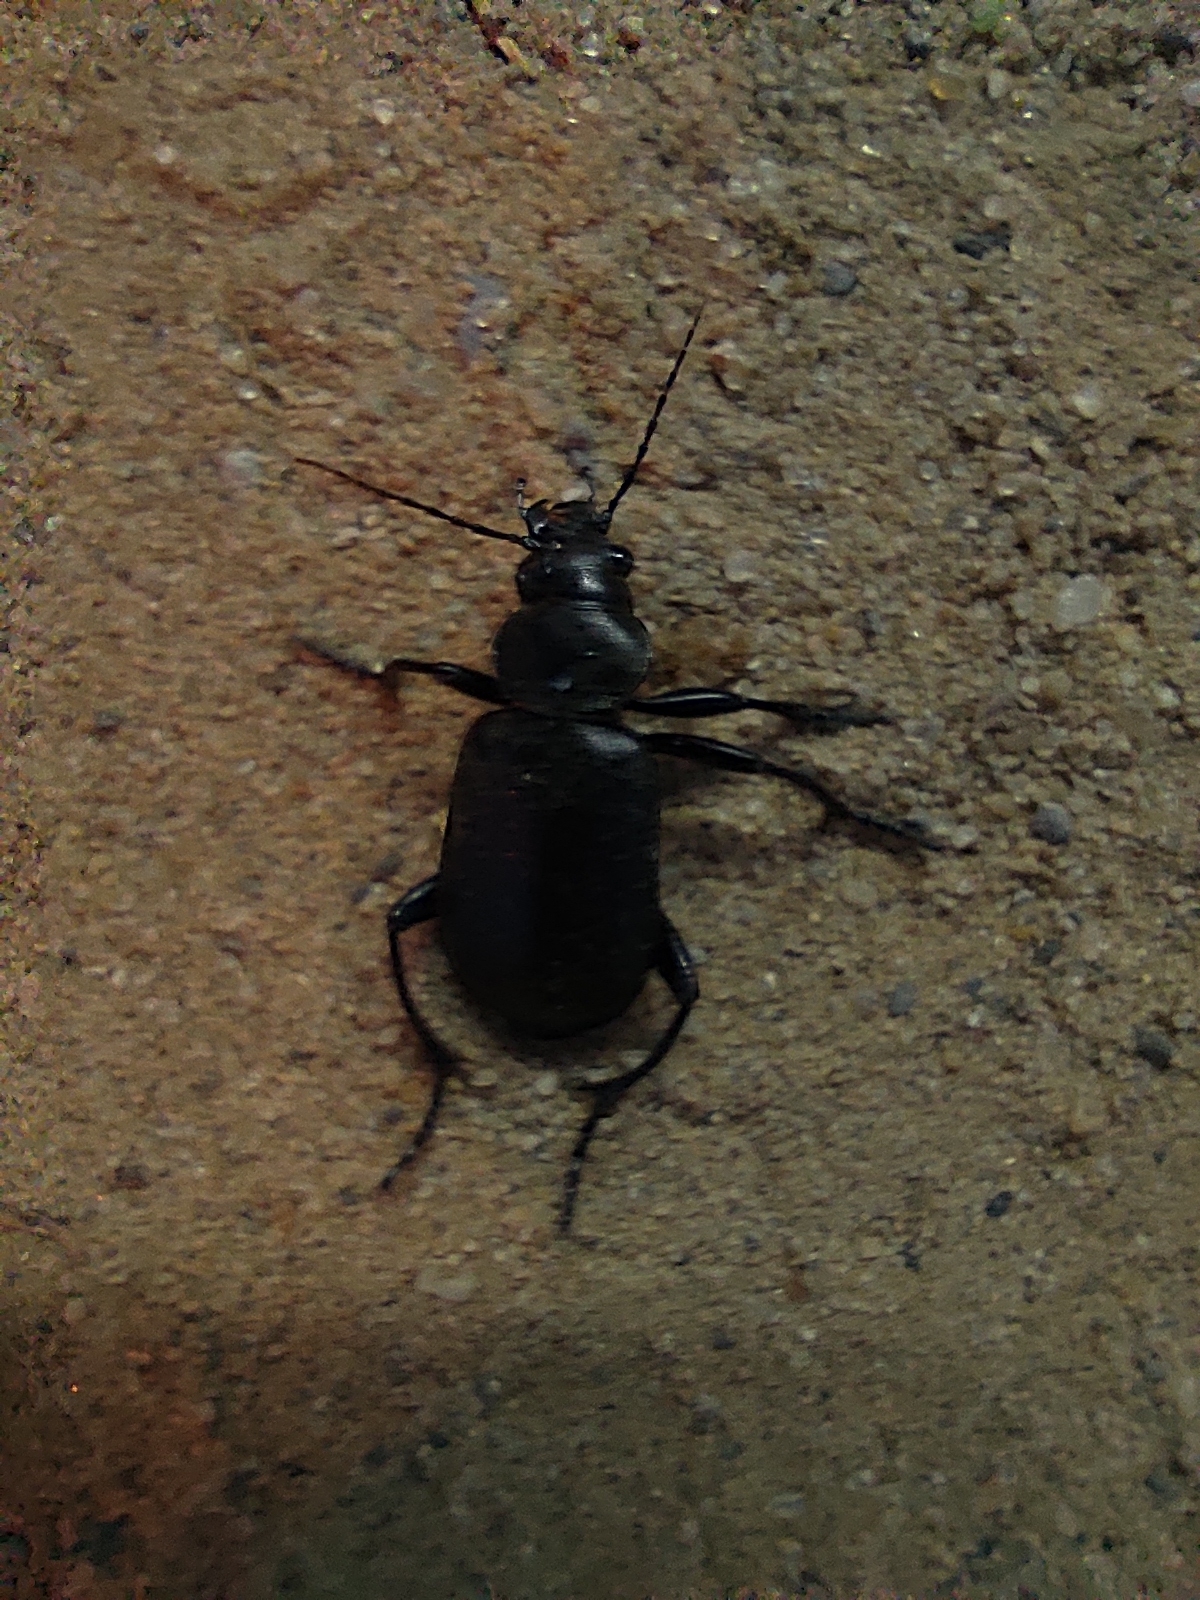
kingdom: Animalia
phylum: Arthropoda
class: Insecta
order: Coleoptera
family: Carabidae
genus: Calosoma
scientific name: Calosoma maderae
